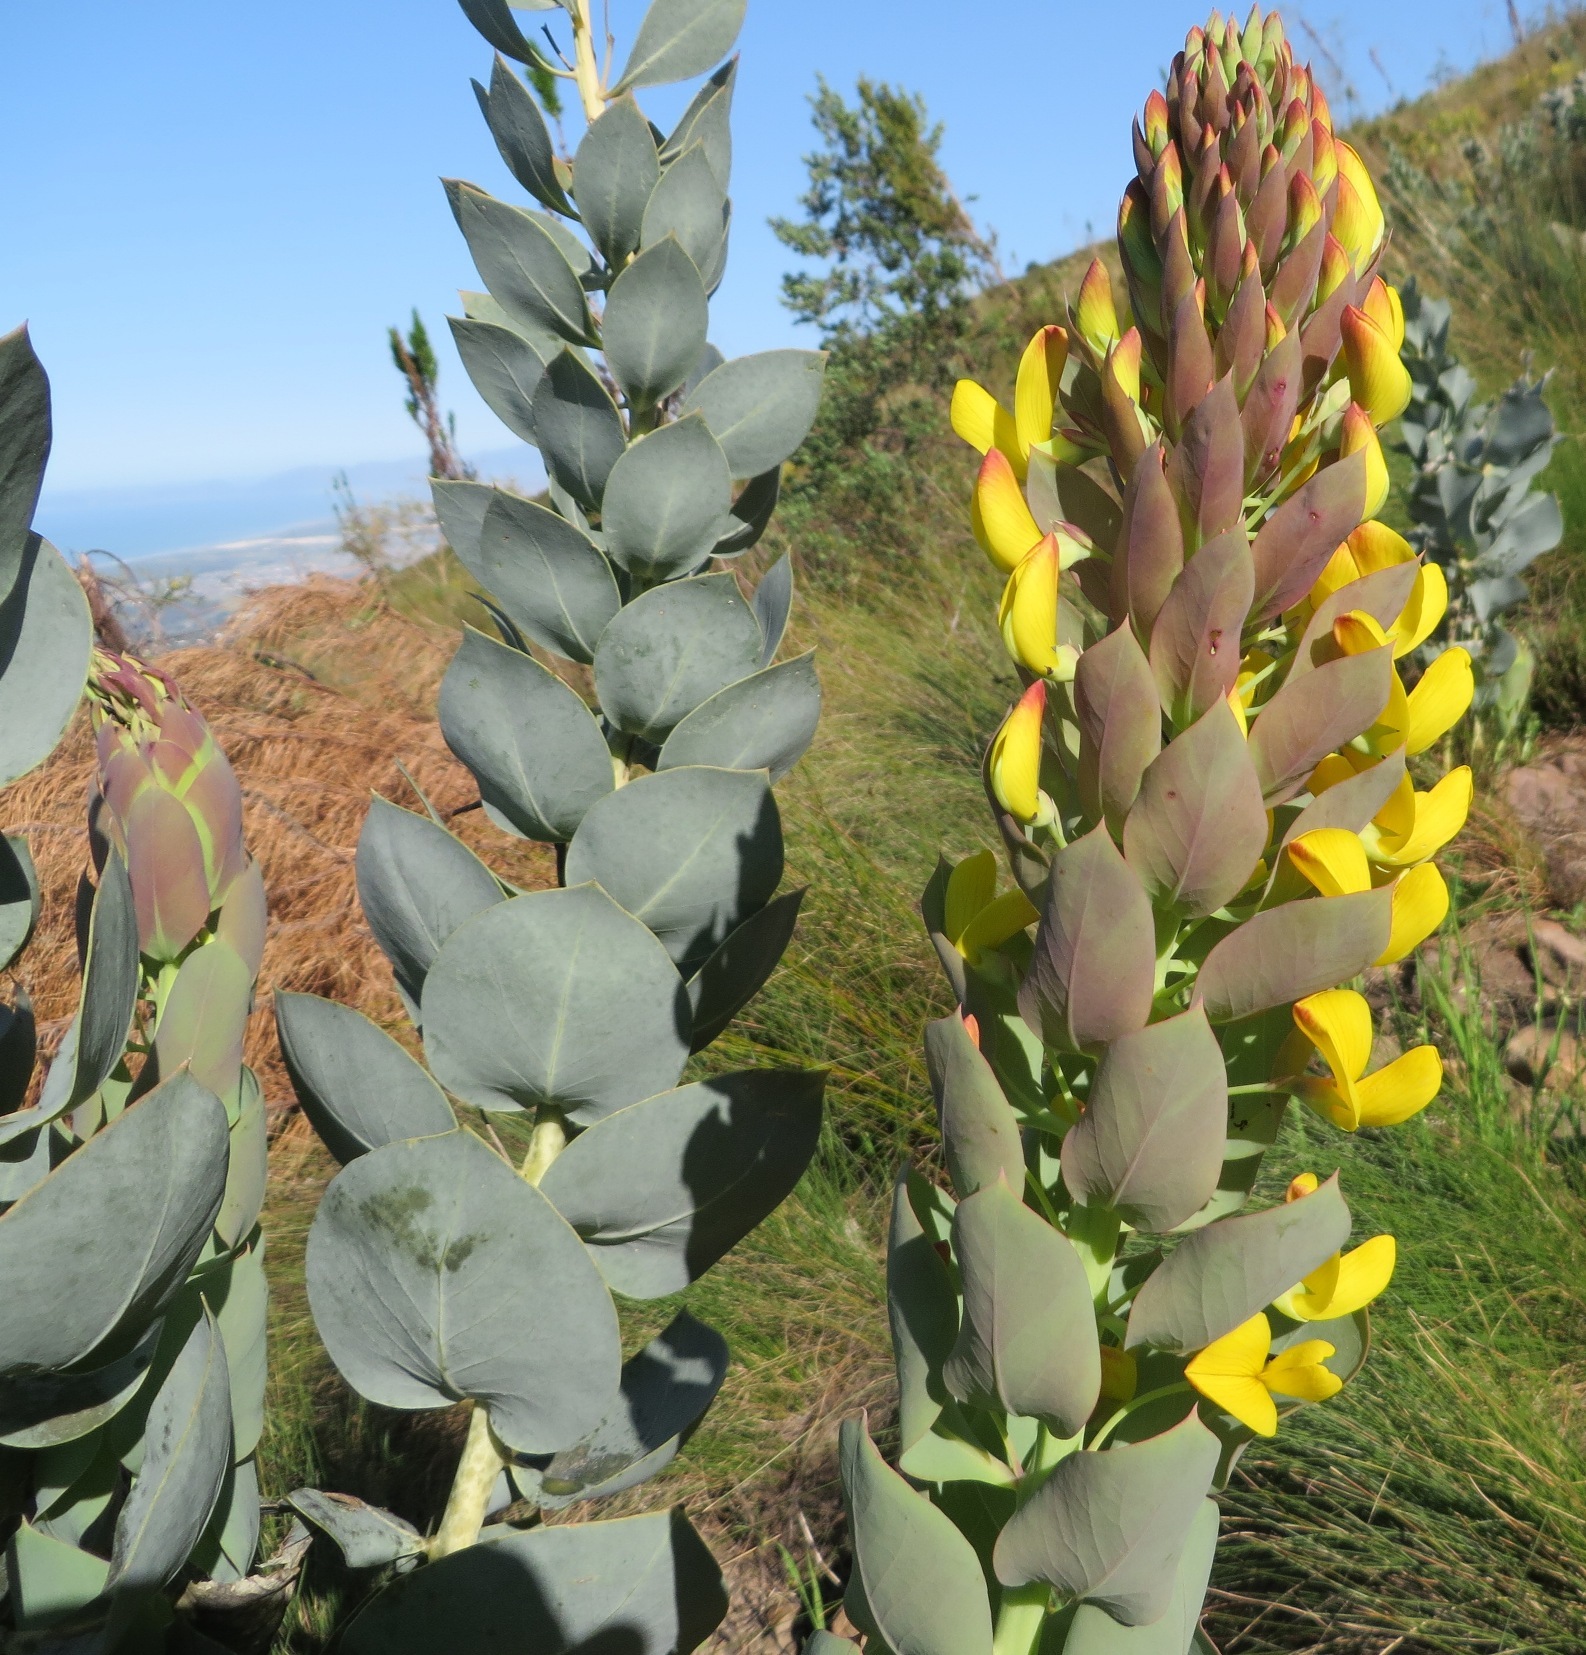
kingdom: Plantae
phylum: Tracheophyta
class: Magnoliopsida
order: Fabales
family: Fabaceae
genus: Rafnia
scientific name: Rafnia triflora
